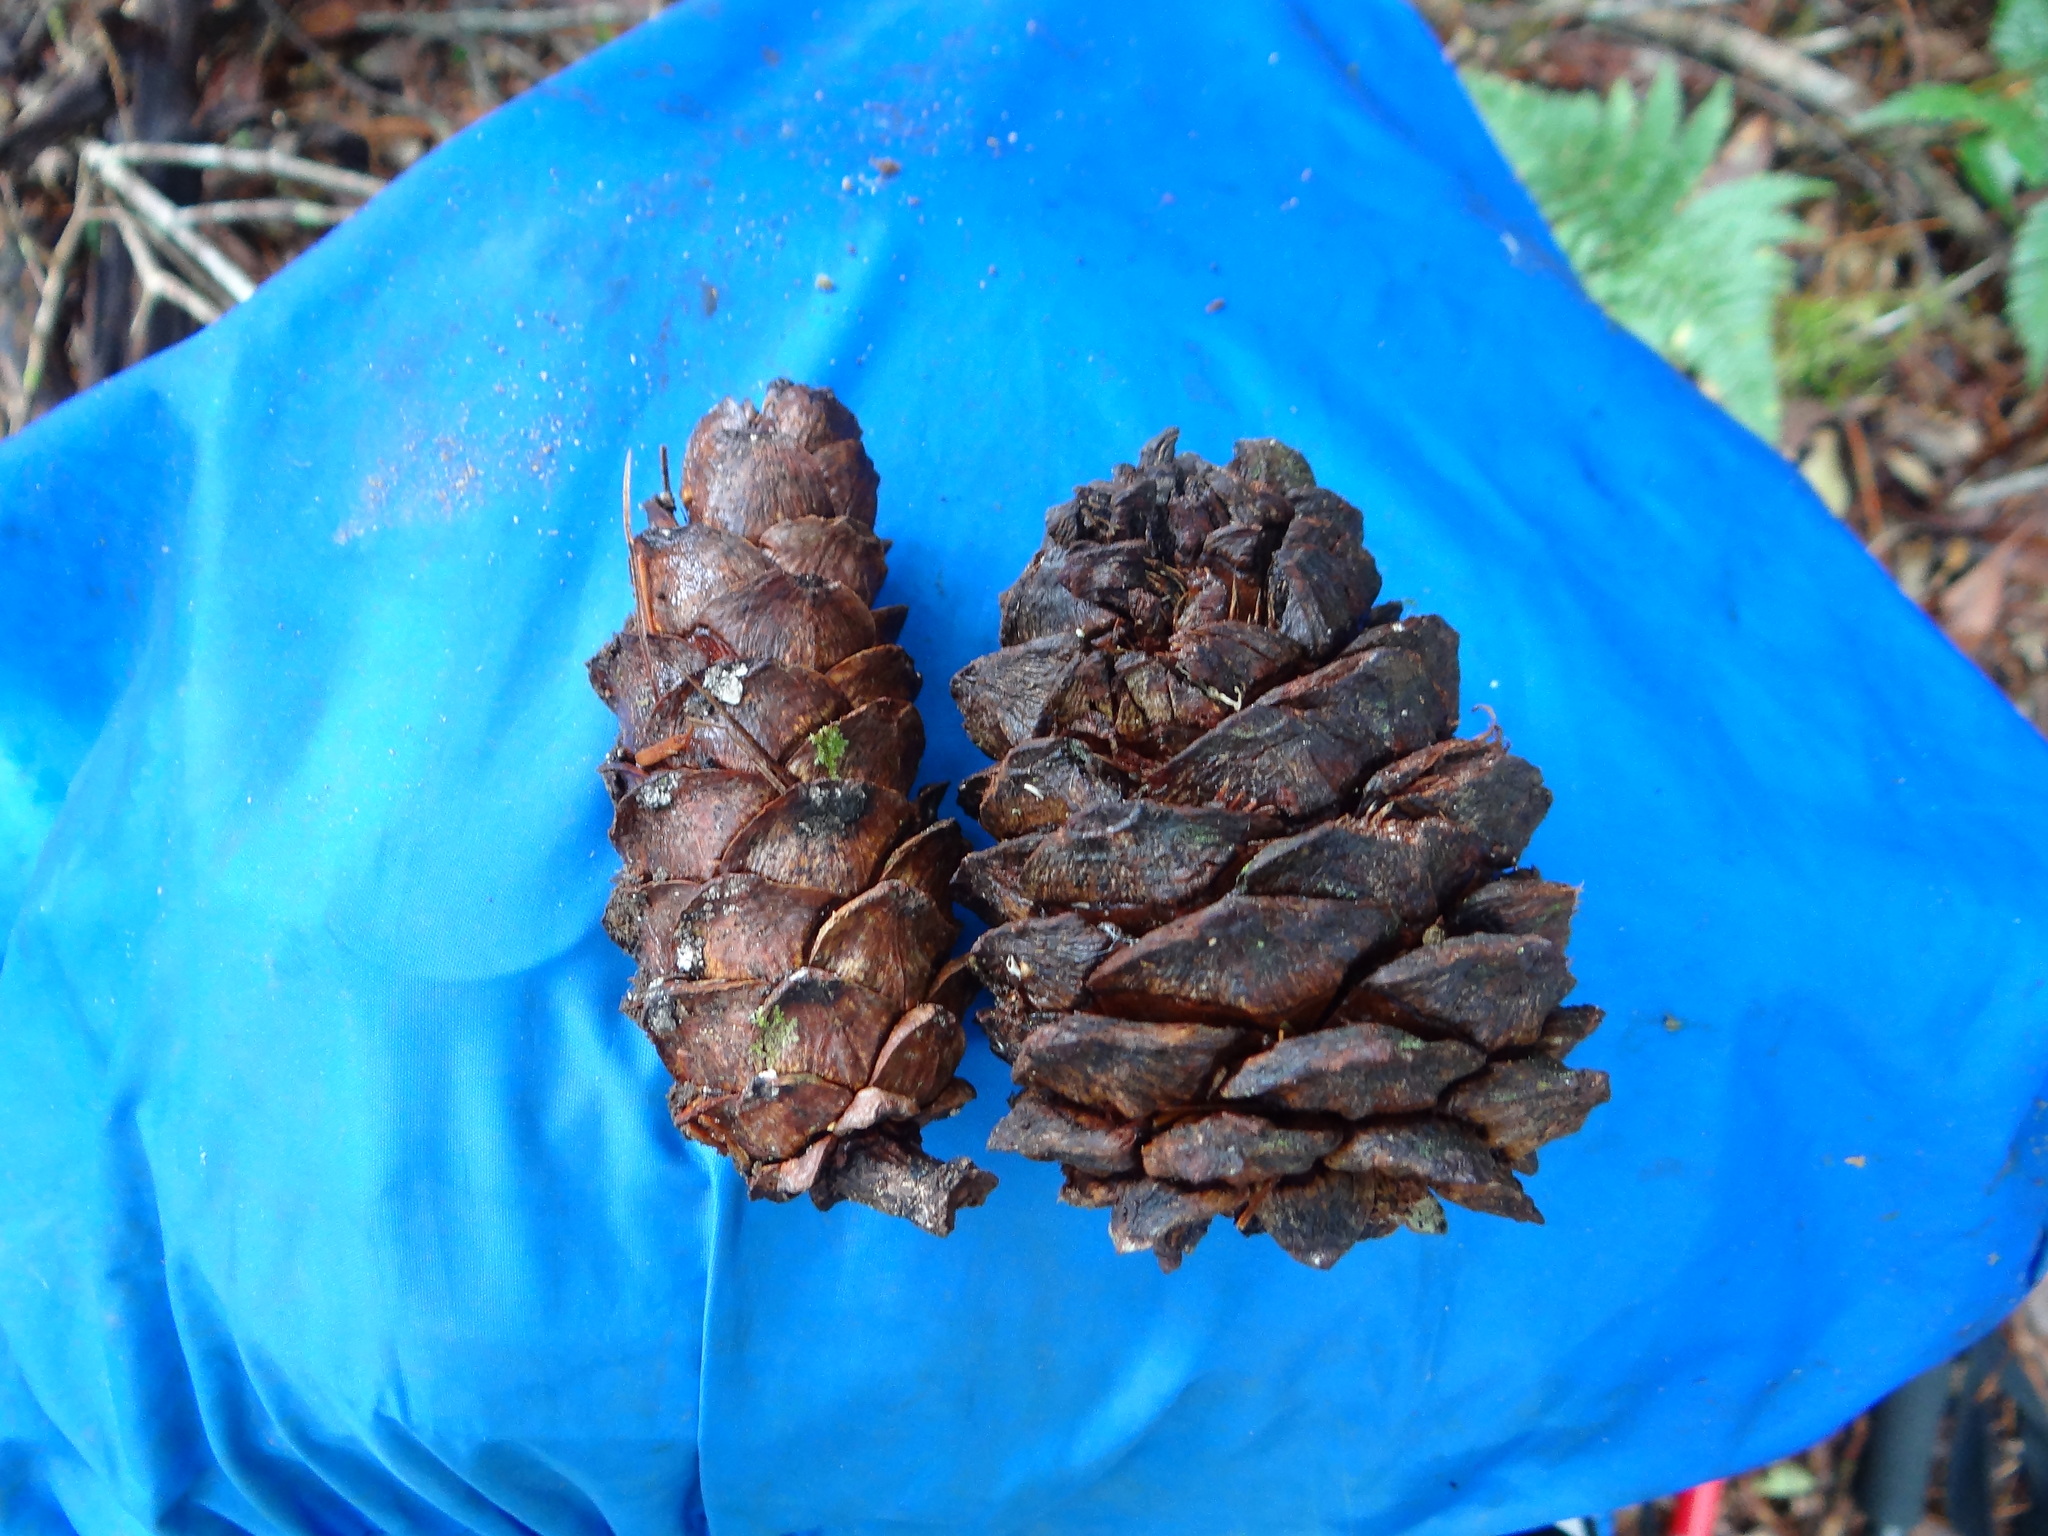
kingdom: Plantae
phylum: Tracheophyta
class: Pinopsida
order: Pinales
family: Pinaceae
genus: Pinus
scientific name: Pinus morrisonicola
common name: Taiwan white pine
